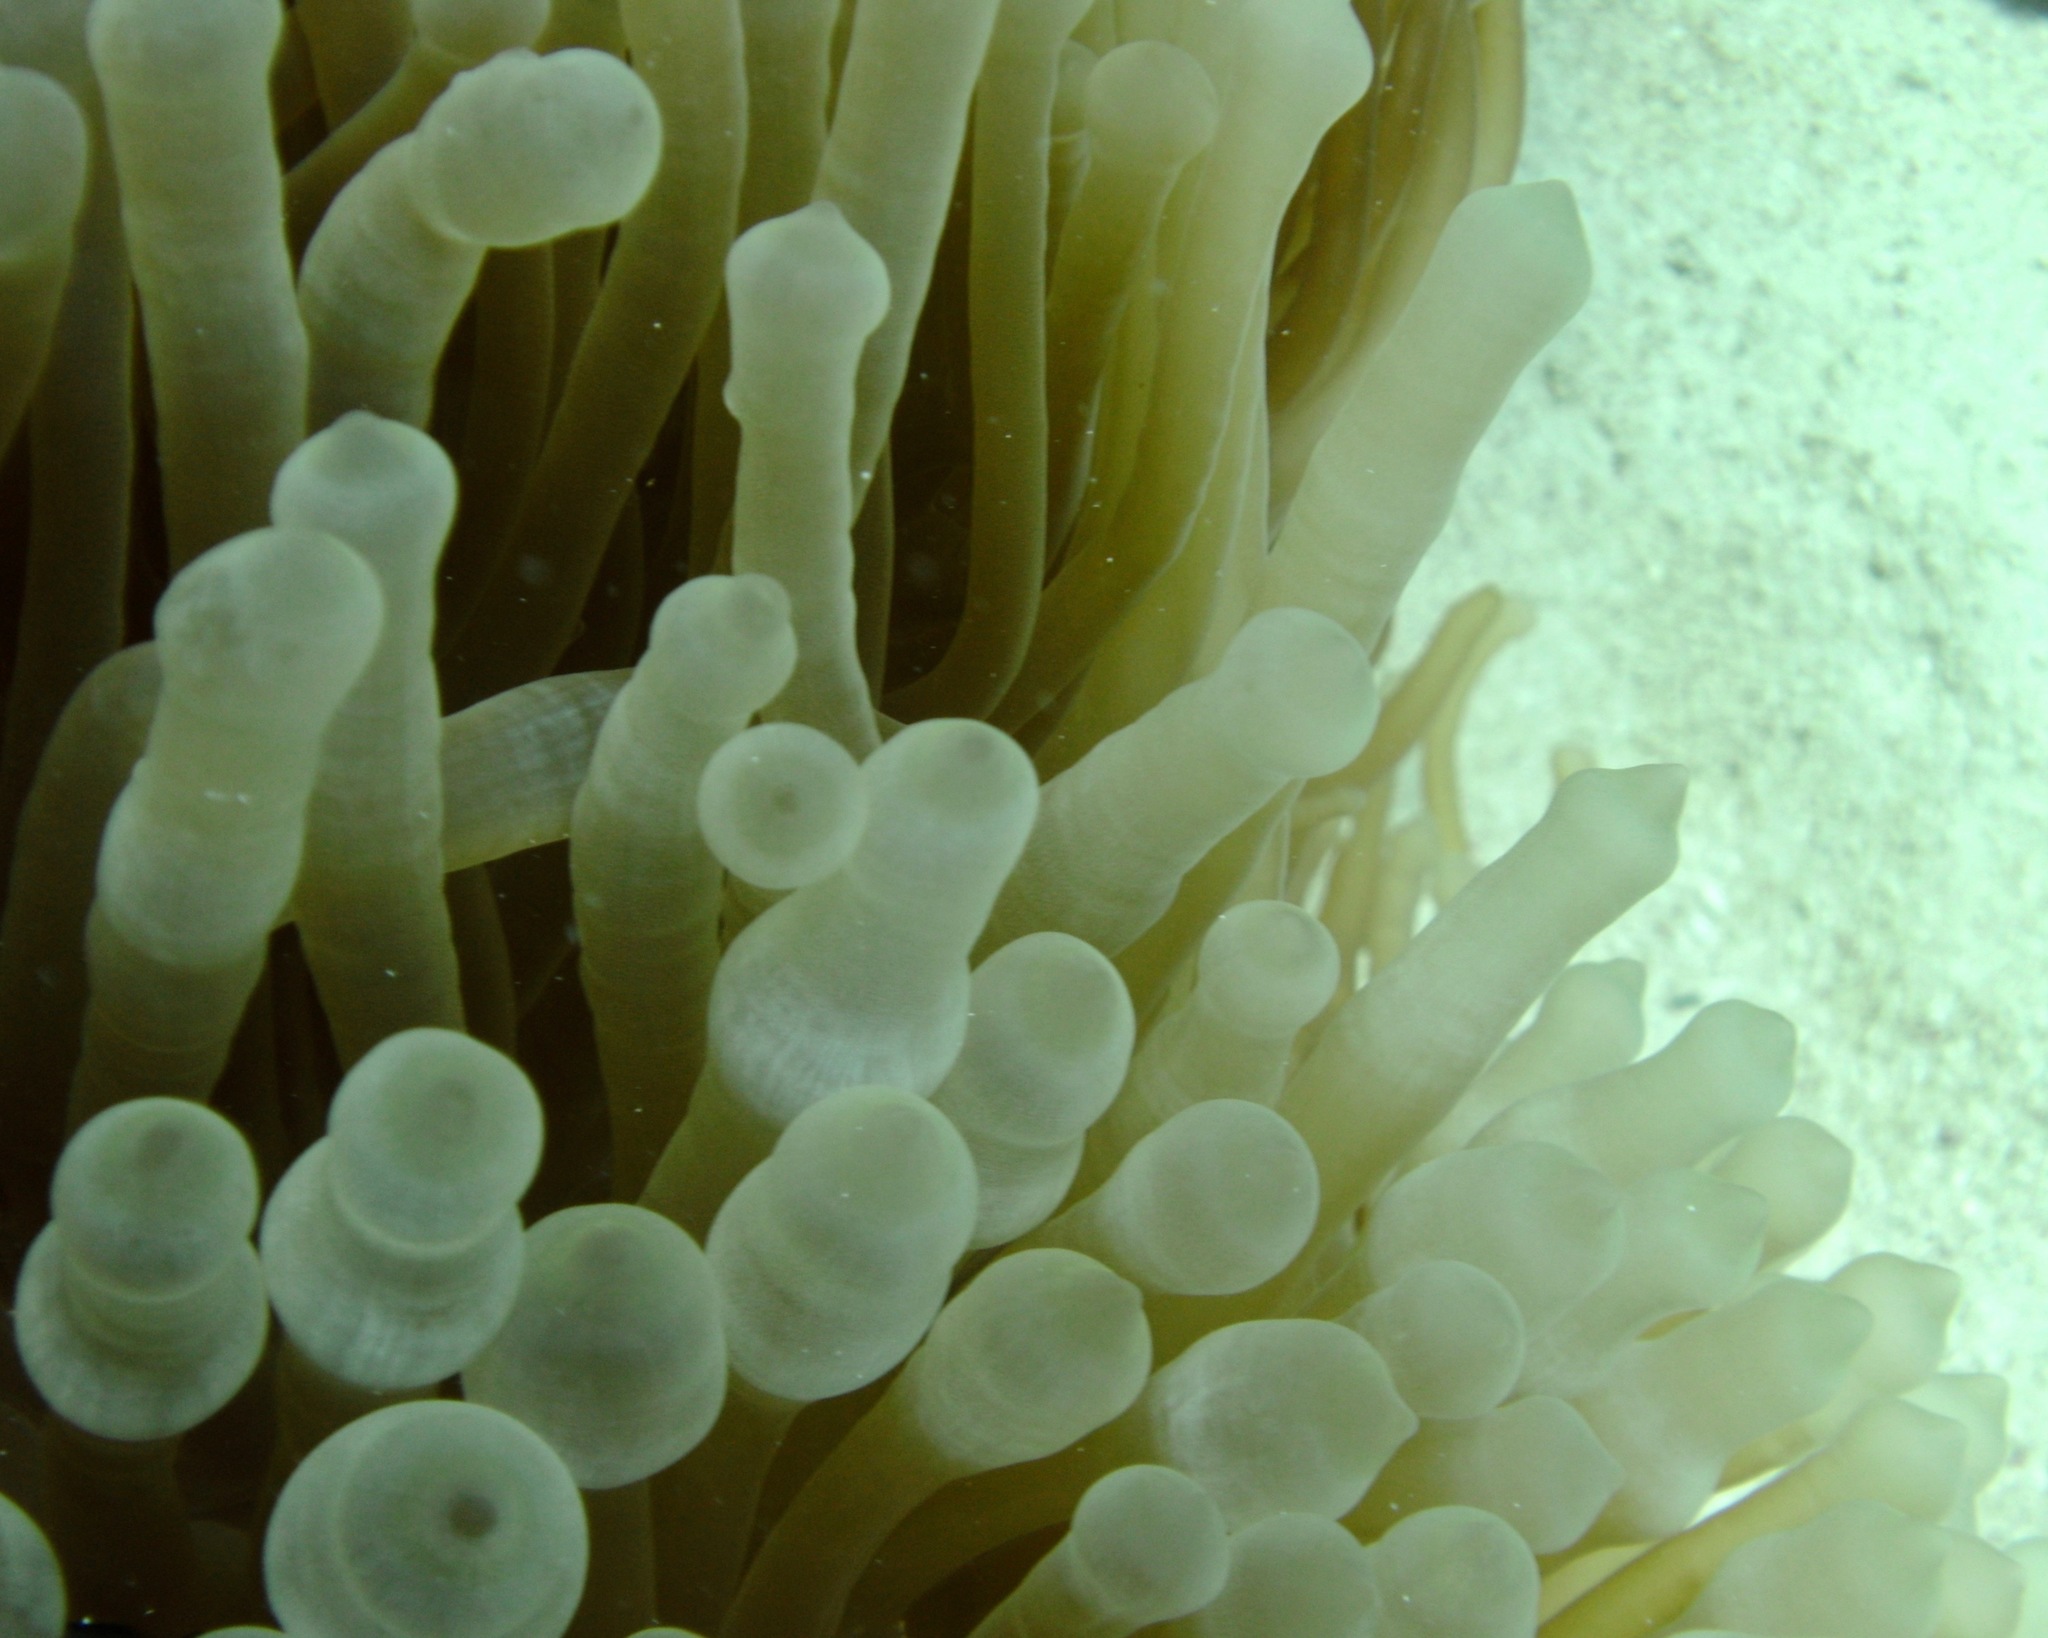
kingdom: Animalia
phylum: Cnidaria
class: Anthozoa
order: Actiniaria
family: Actiniidae
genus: Entacmaea
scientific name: Entacmaea quadricolor
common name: Bulb tentacle sea anemone
